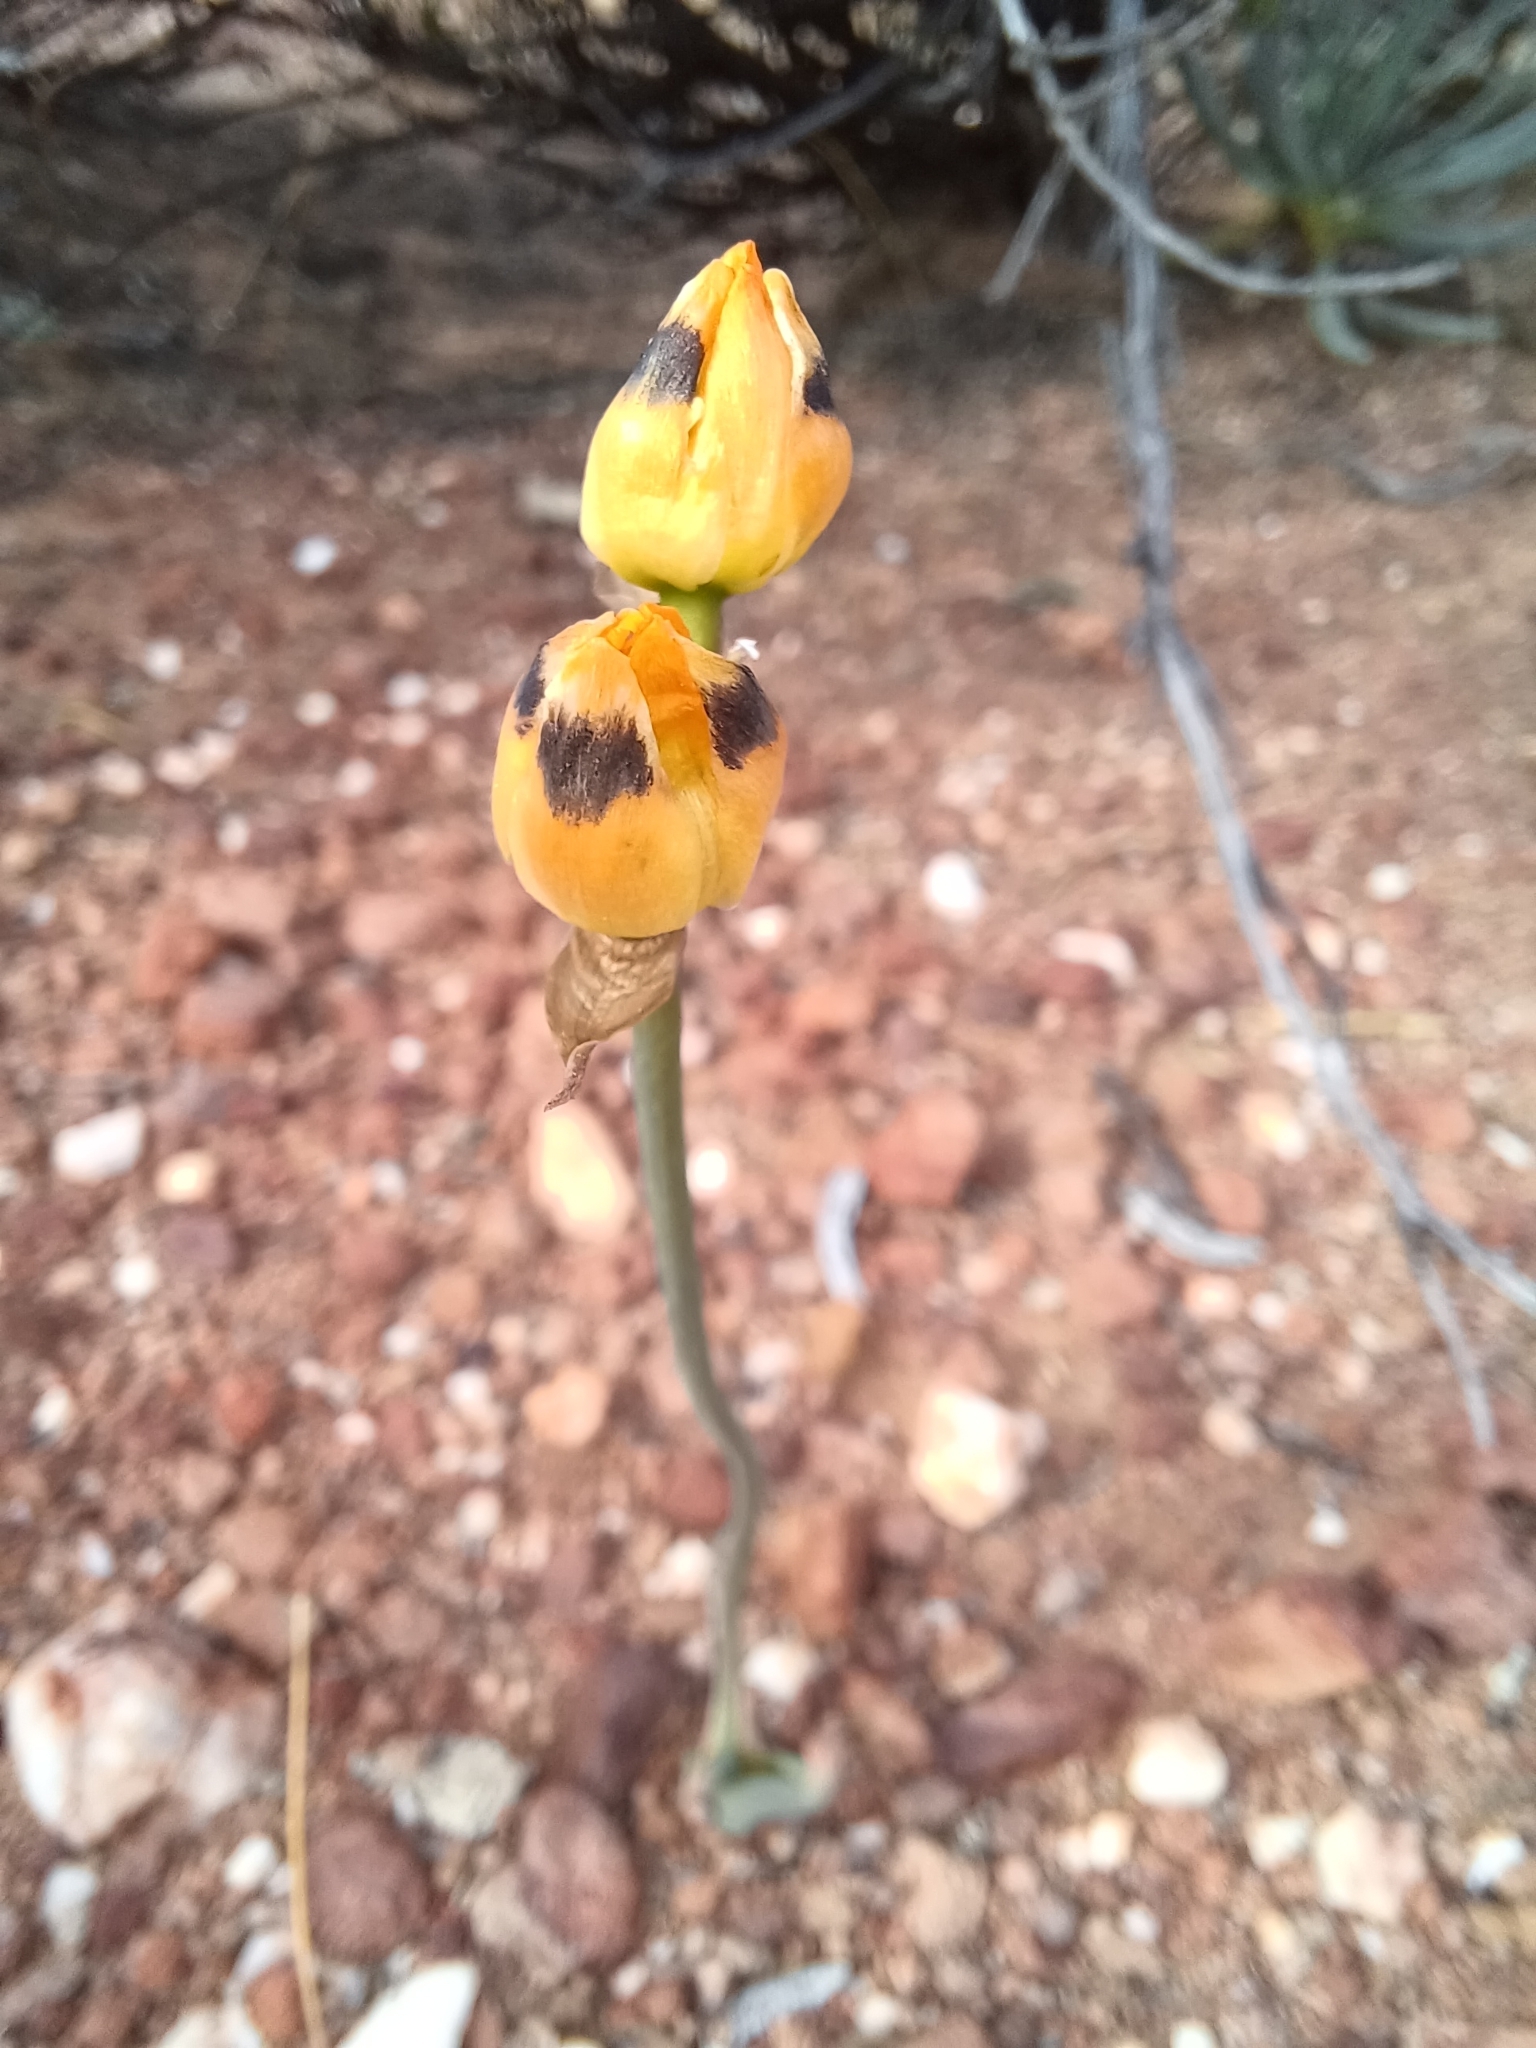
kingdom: Plantae
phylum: Tracheophyta
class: Liliopsida
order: Asparagales
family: Asparagaceae
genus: Ornithogalum
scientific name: Ornithogalum maculatum
